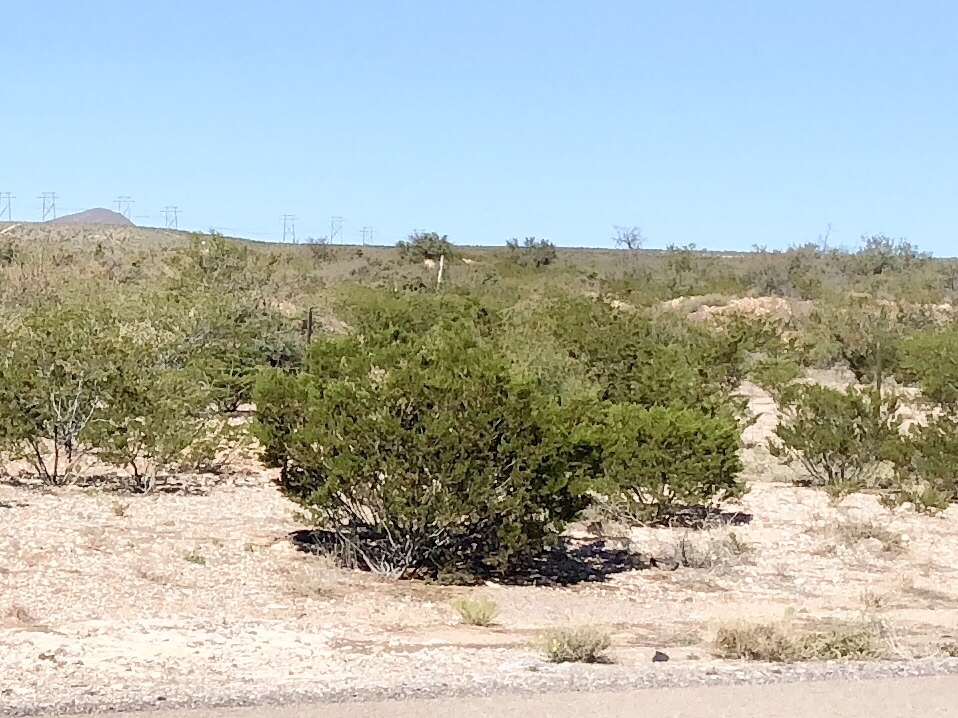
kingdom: Plantae
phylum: Tracheophyta
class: Magnoliopsida
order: Zygophyllales
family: Zygophyllaceae
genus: Larrea
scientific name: Larrea tridentata
